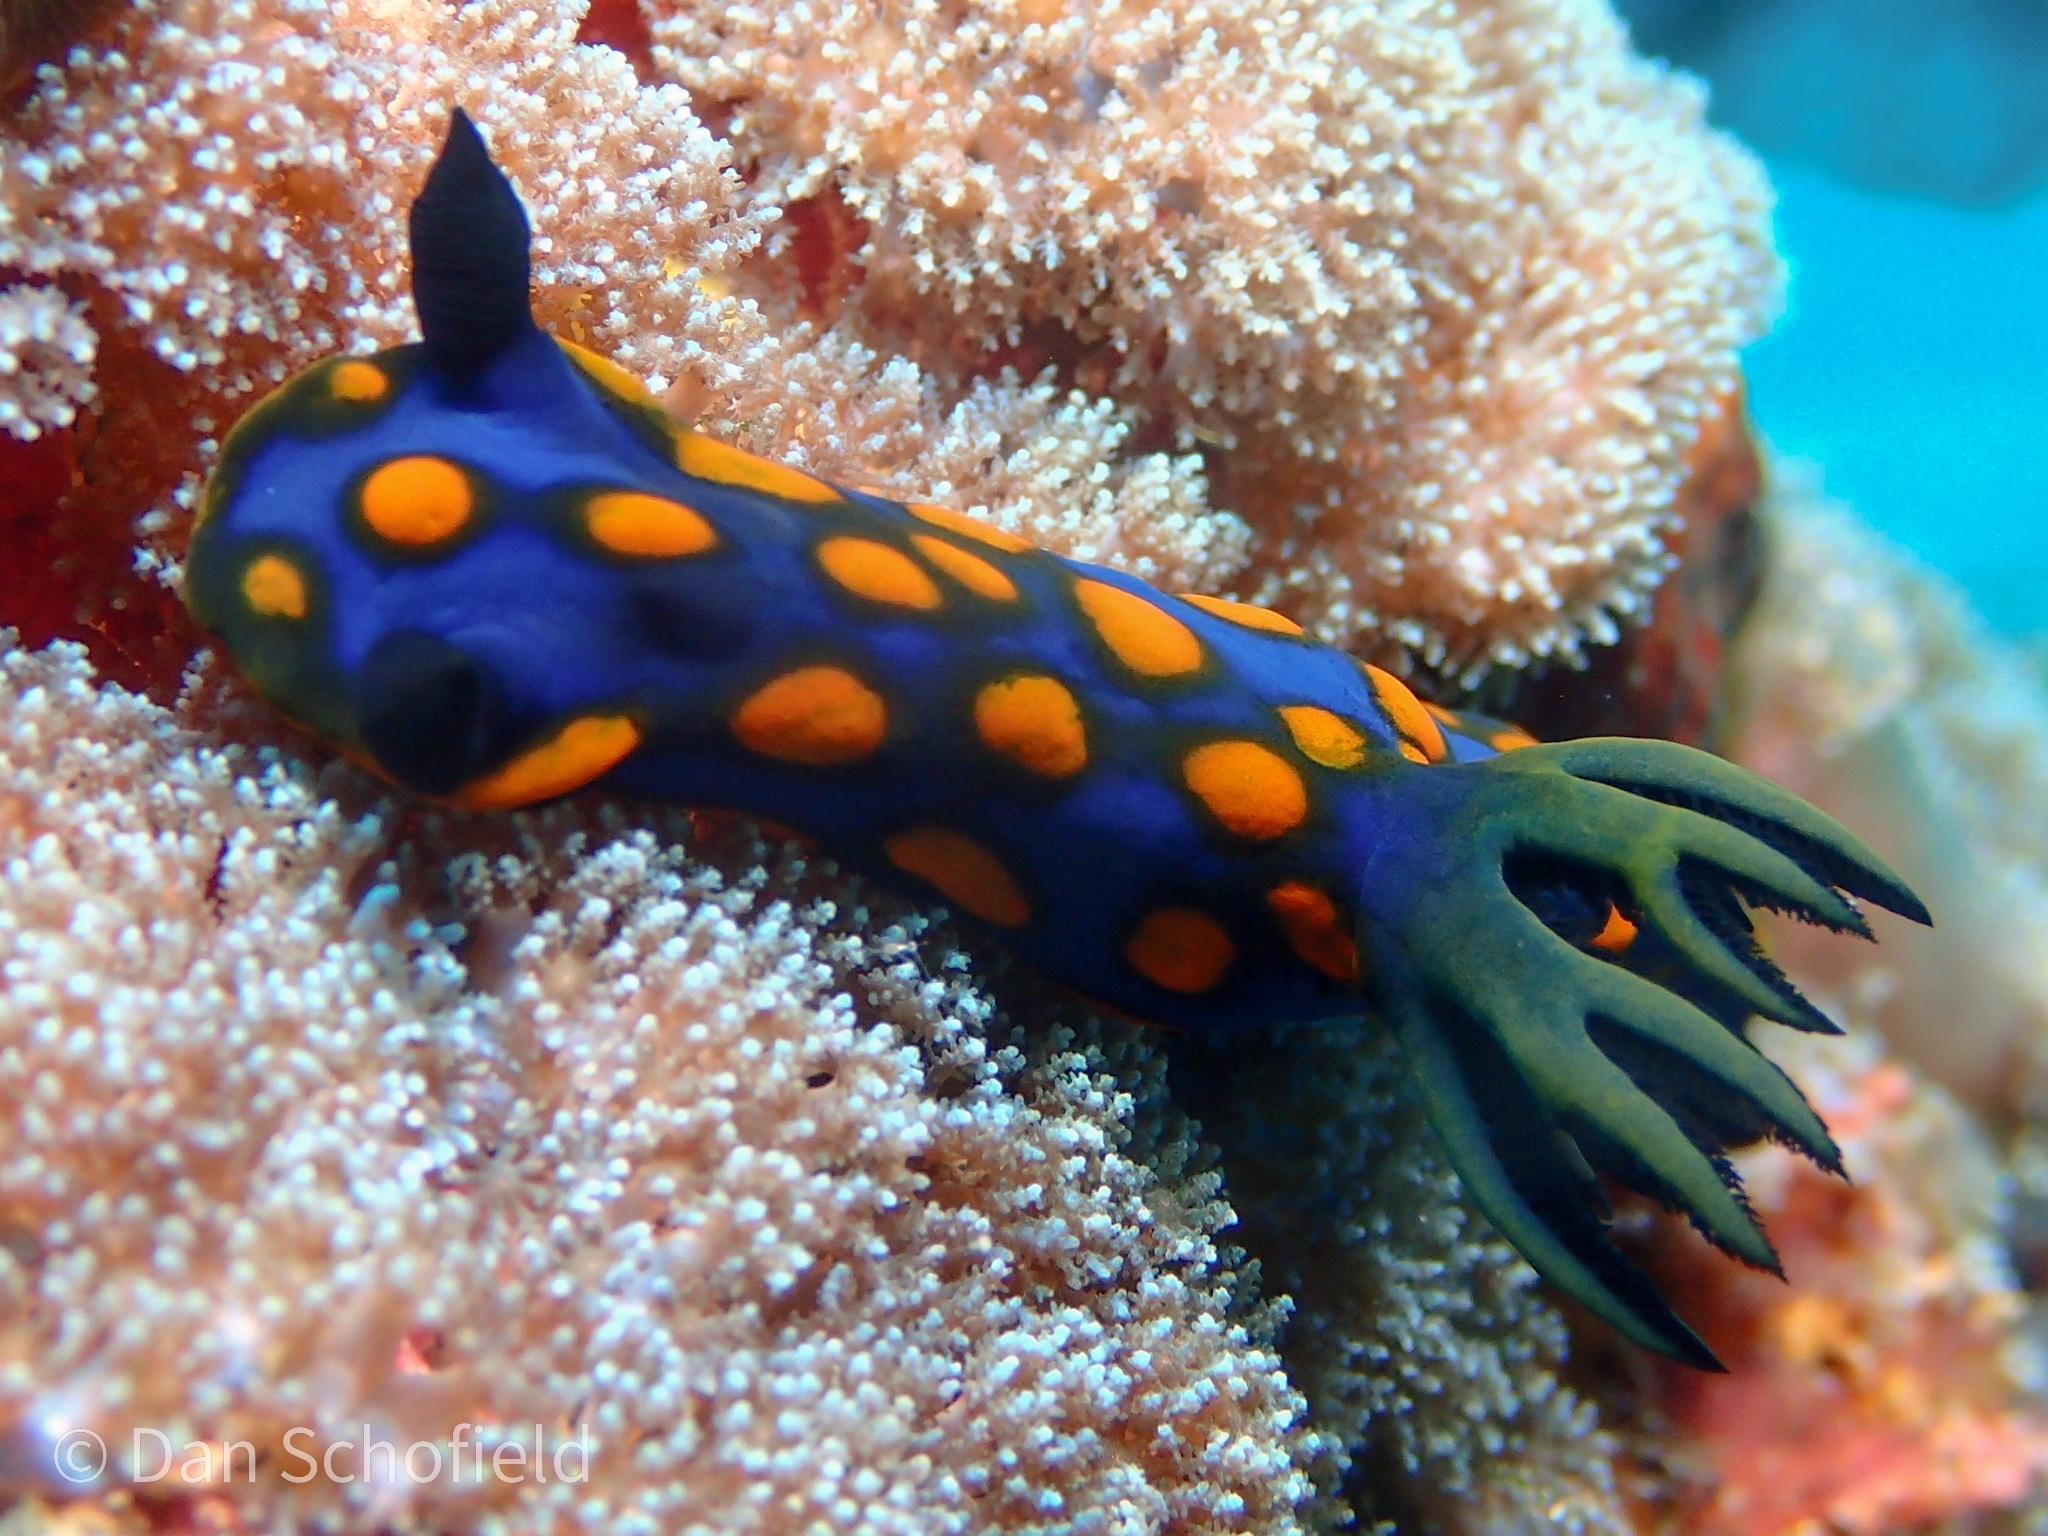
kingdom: Animalia
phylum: Mollusca
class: Gastropoda
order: Nudibranchia
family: Polyceridae
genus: Tambja
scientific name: Tambja sagamiana
